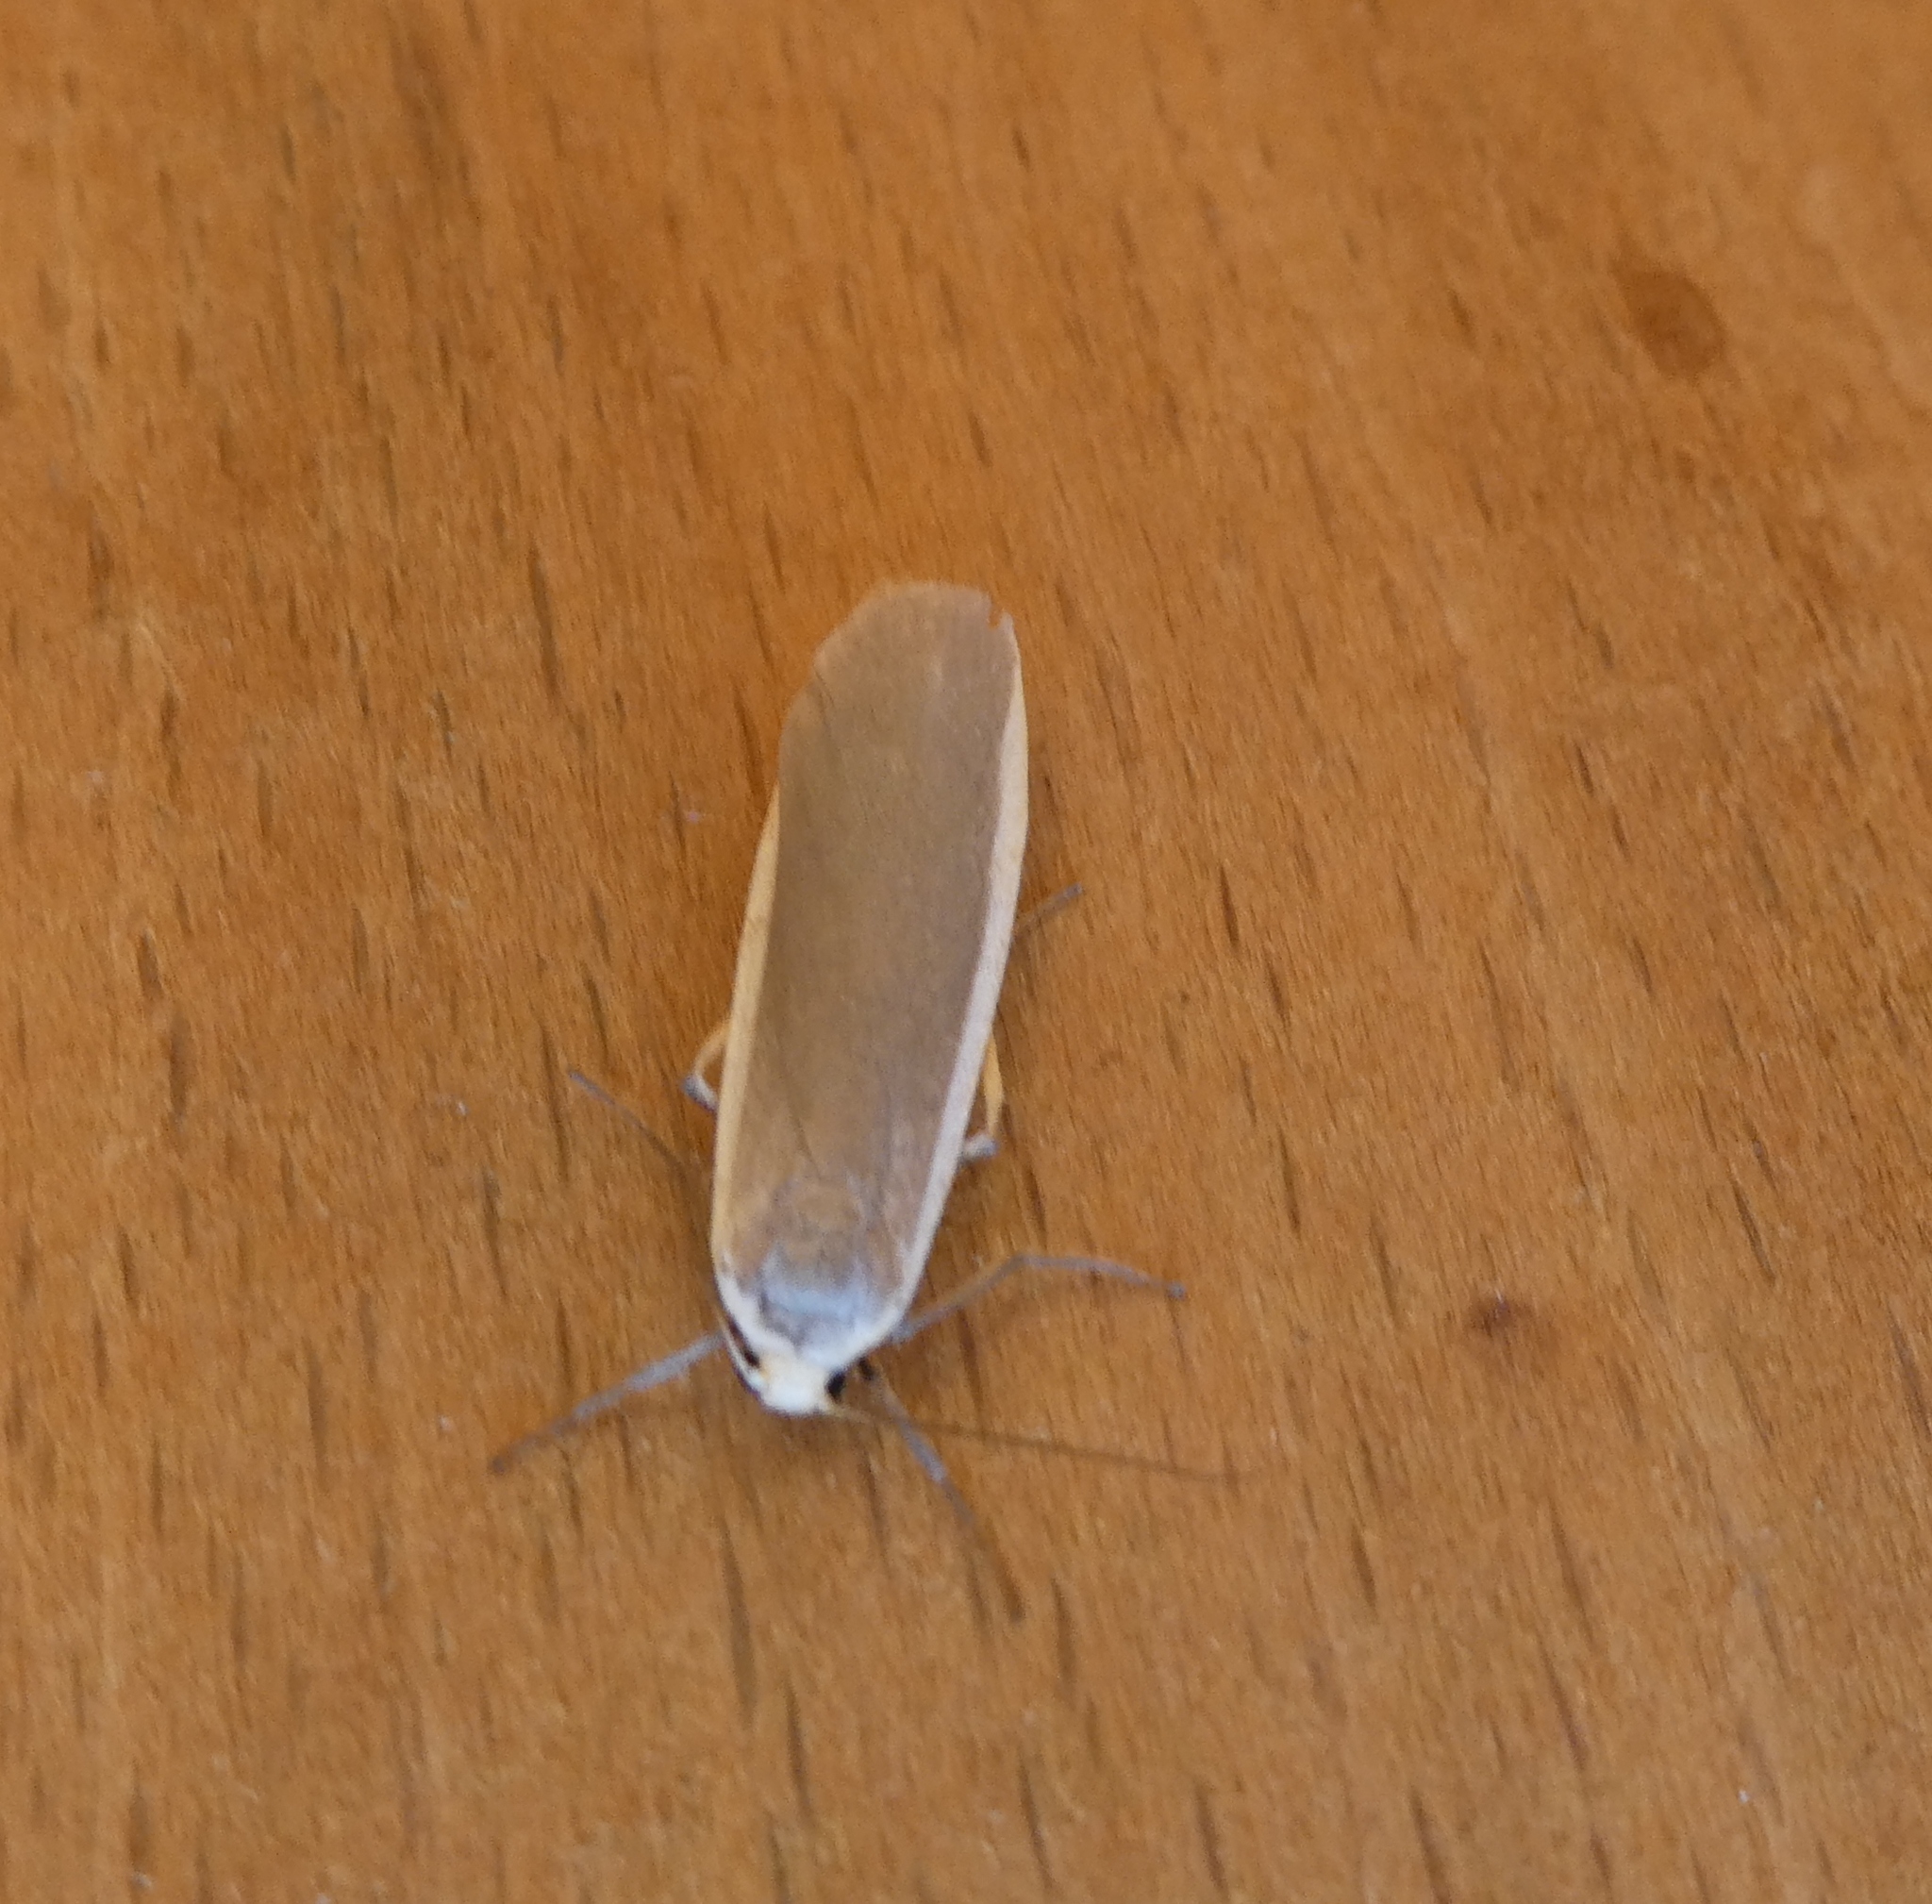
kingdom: Animalia
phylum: Arthropoda
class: Insecta
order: Lepidoptera
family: Erebidae
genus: Nyea
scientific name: Nyea lurideola
